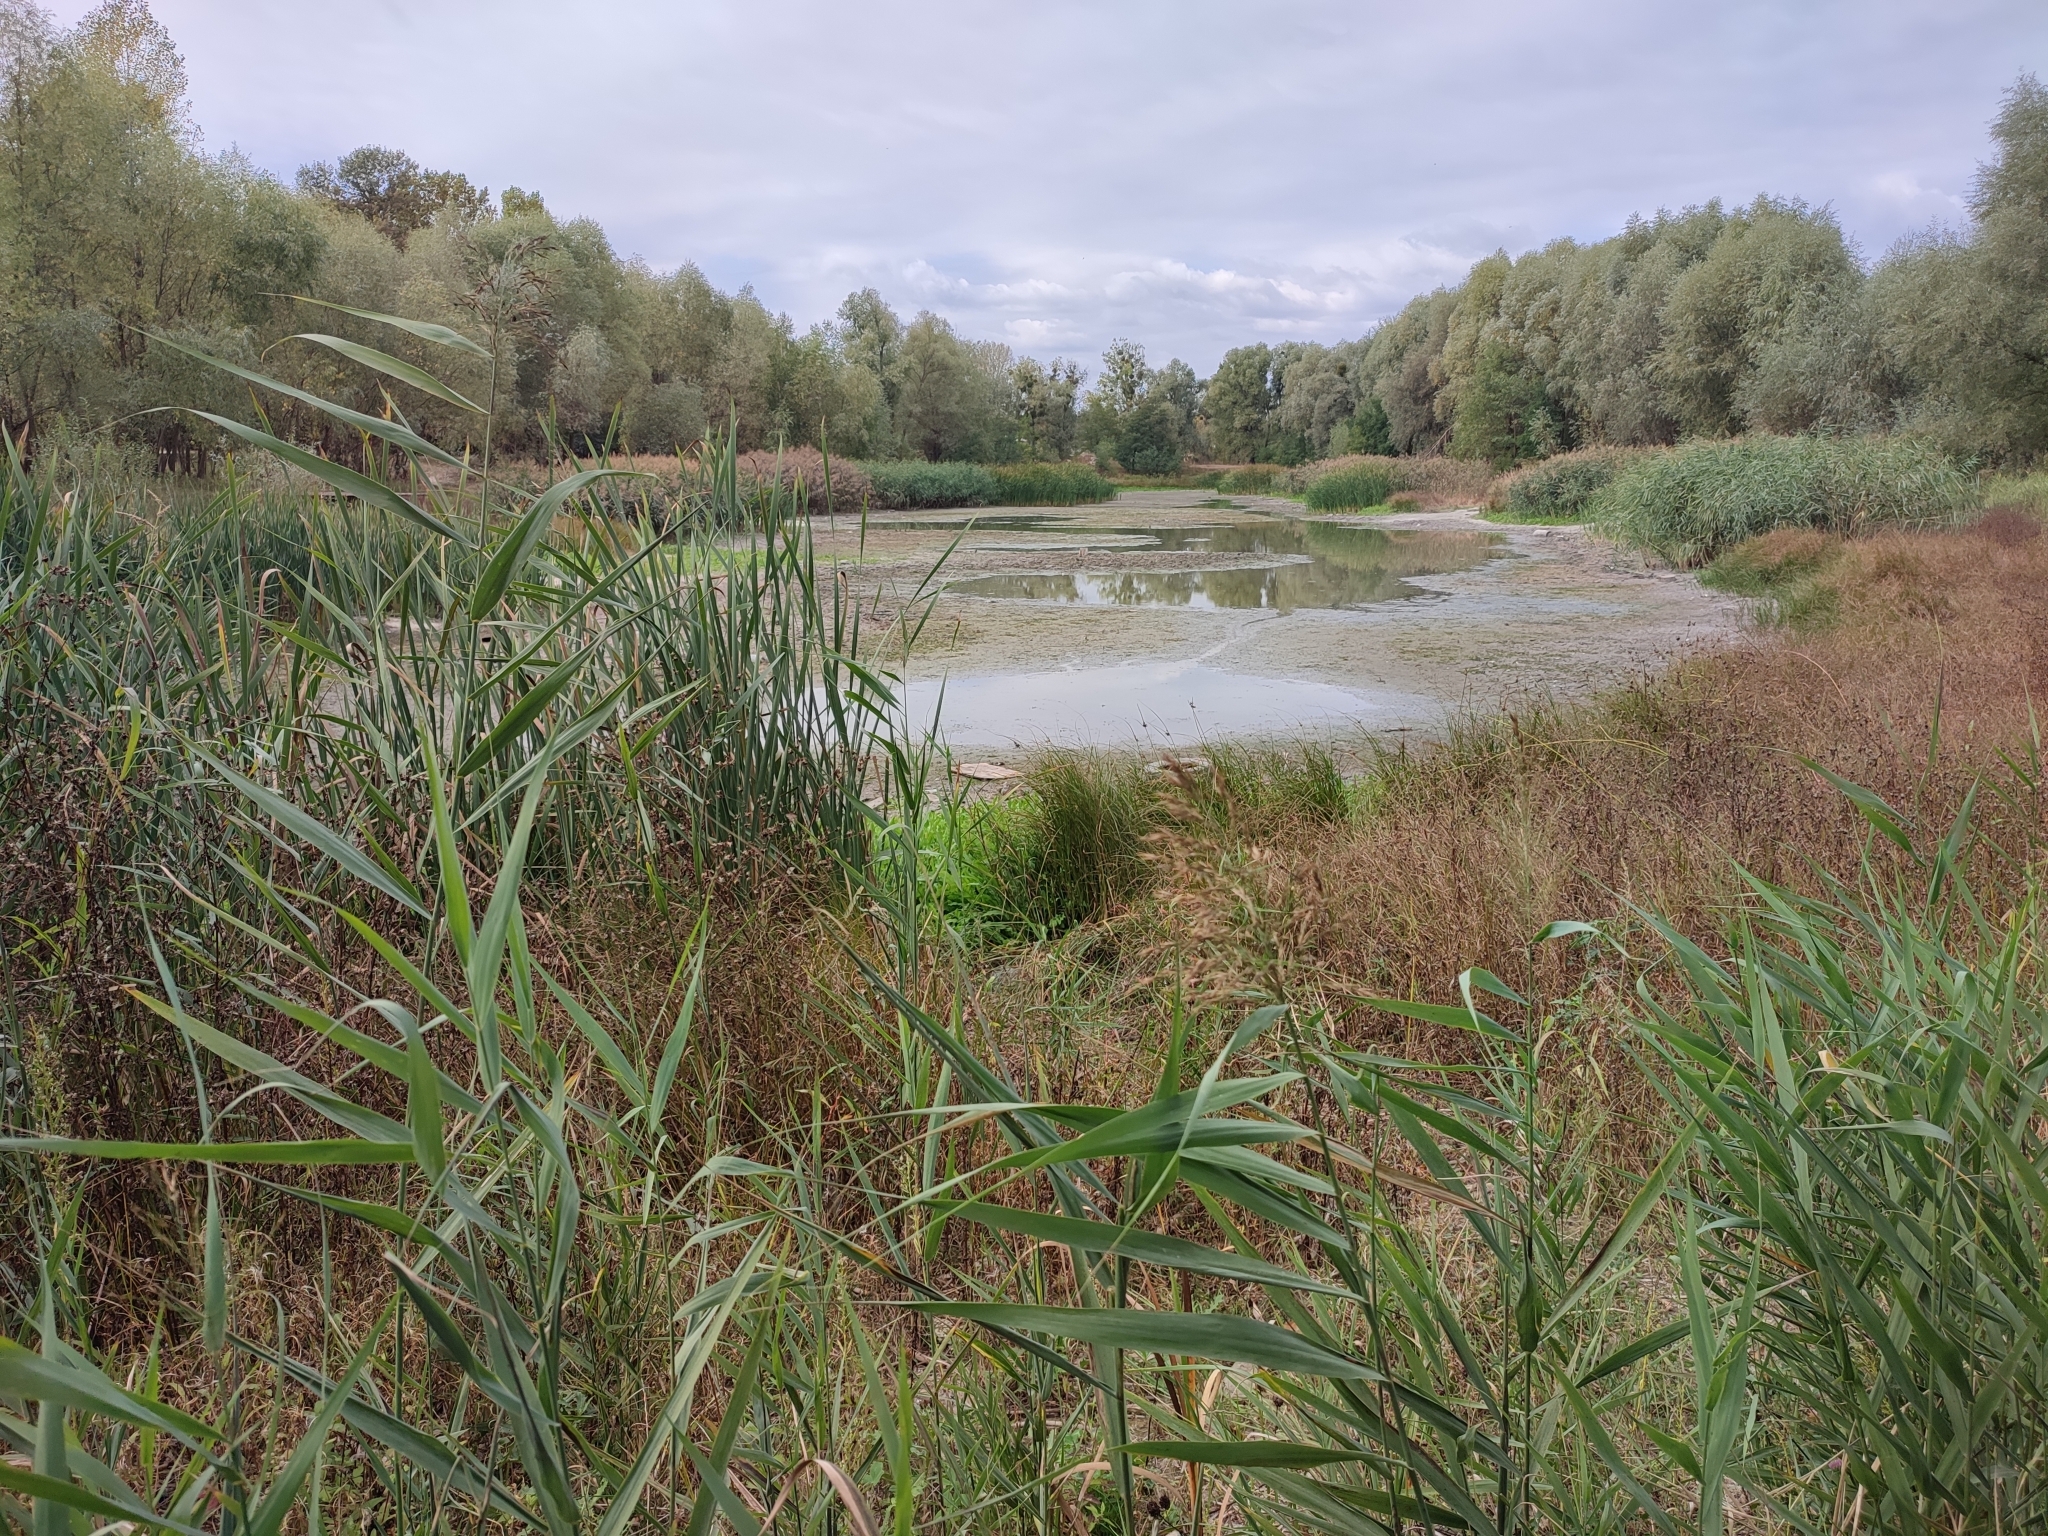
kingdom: Plantae
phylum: Tracheophyta
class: Liliopsida
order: Poales
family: Poaceae
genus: Phragmites
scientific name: Phragmites australis
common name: Common reed
